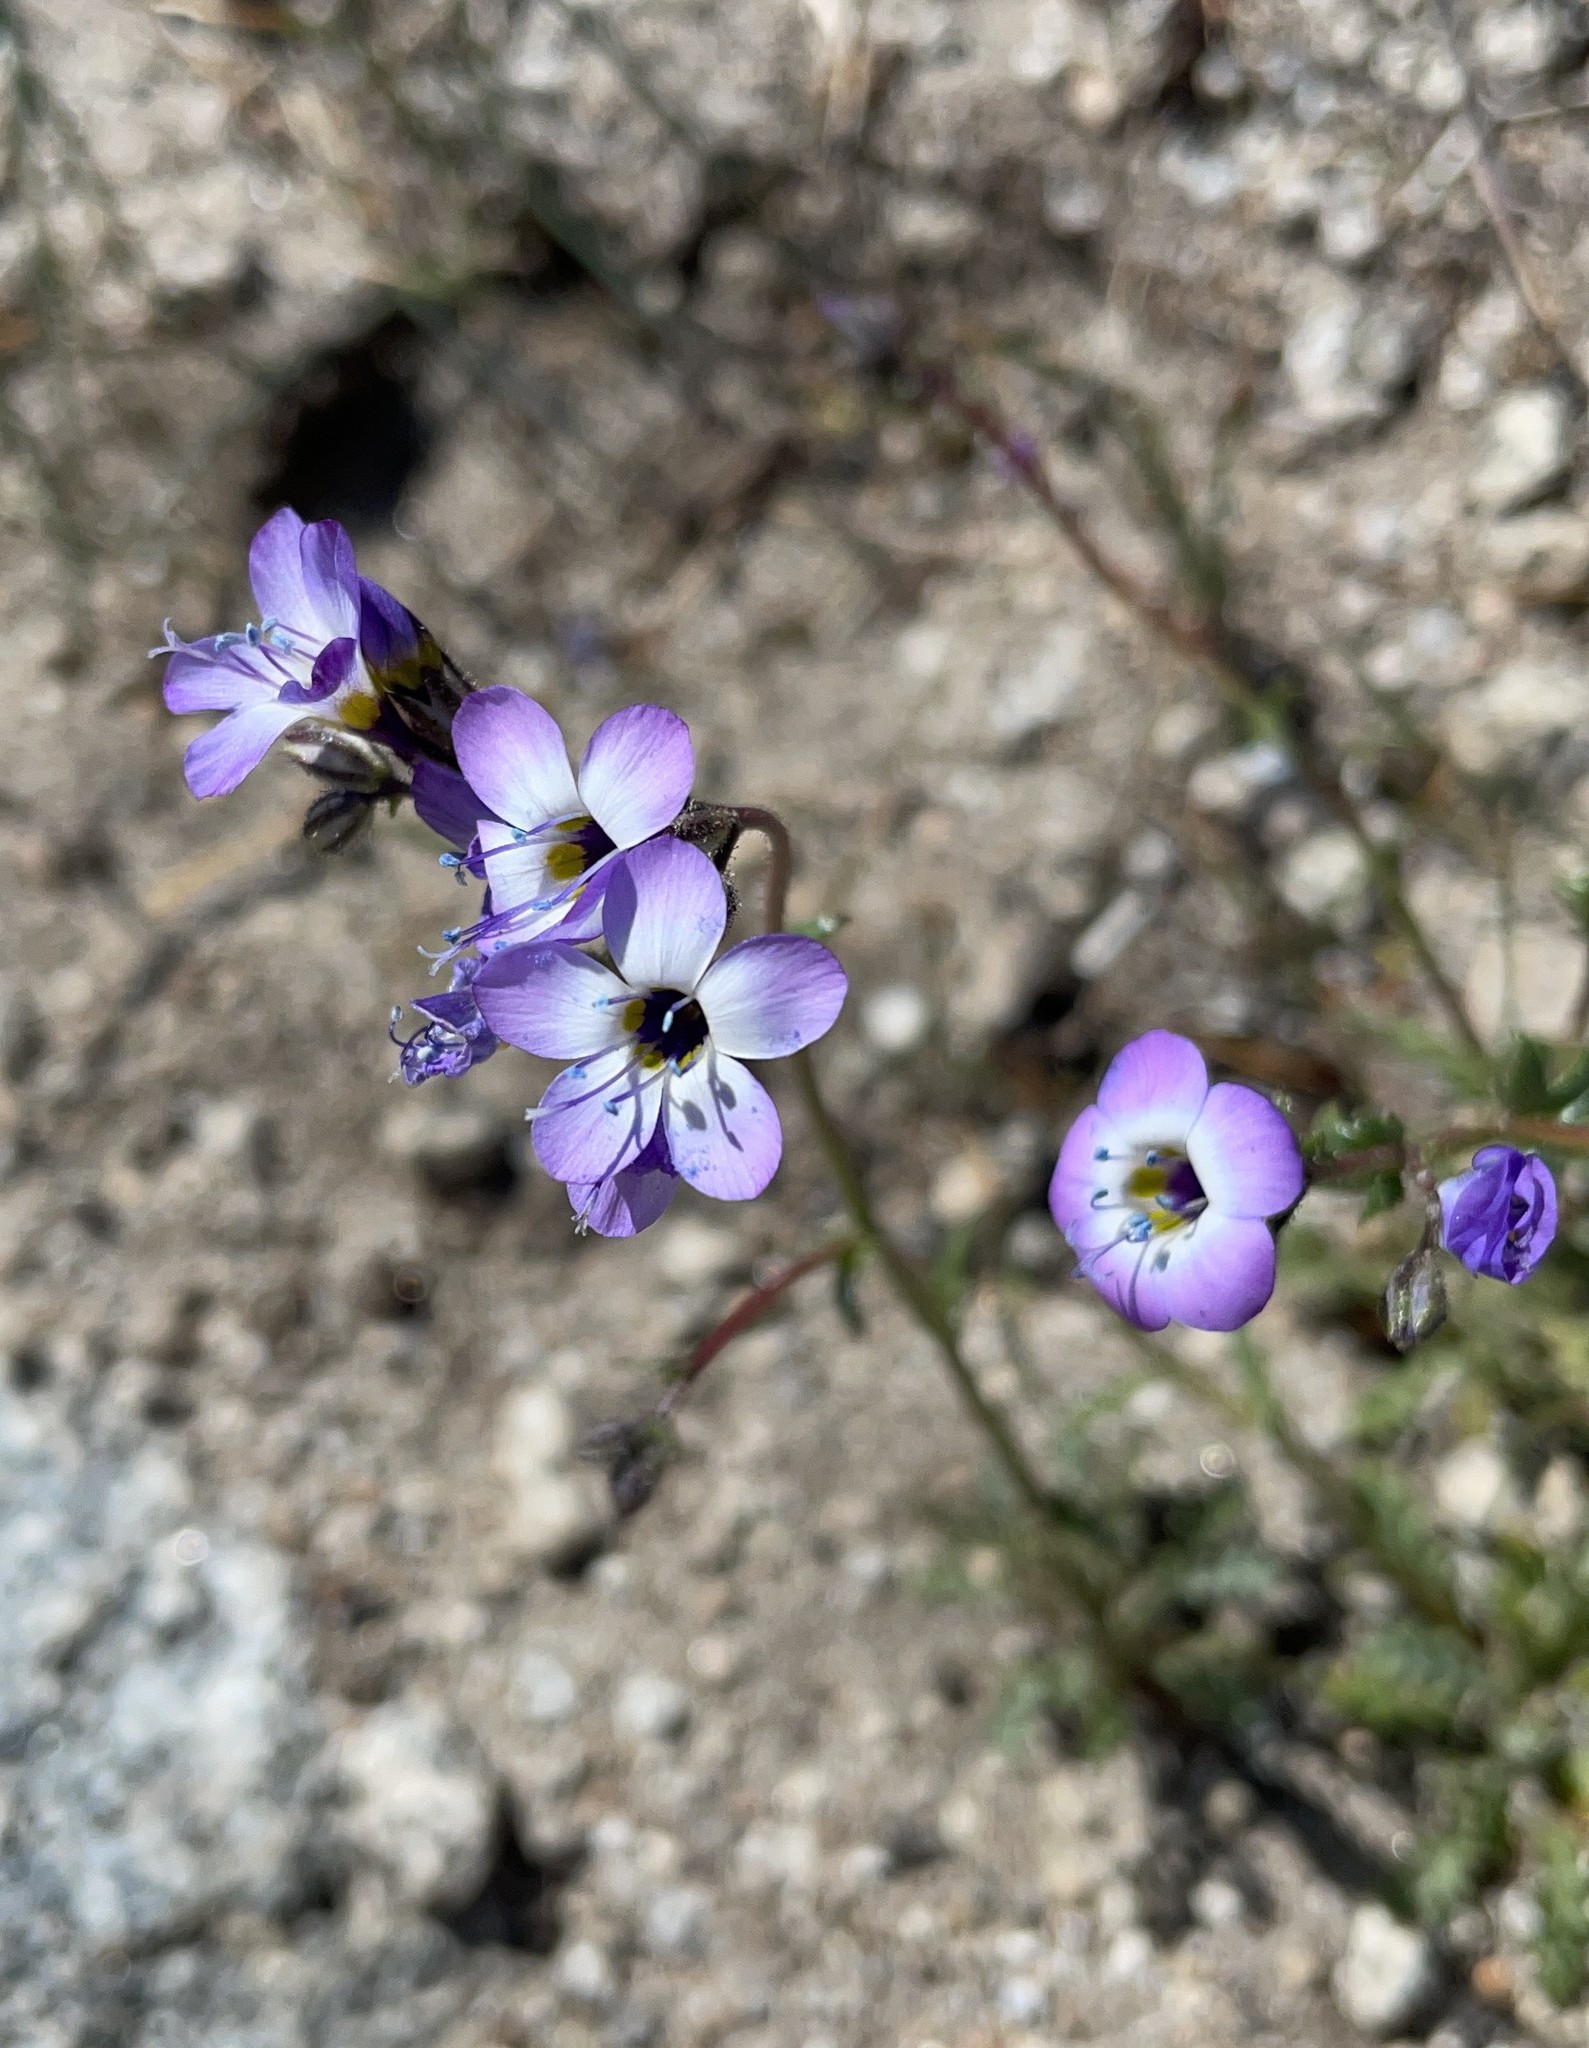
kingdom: Plantae
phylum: Tracheophyta
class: Magnoliopsida
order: Ericales
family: Polemoniaceae
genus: Gilia
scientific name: Gilia brecciarum
